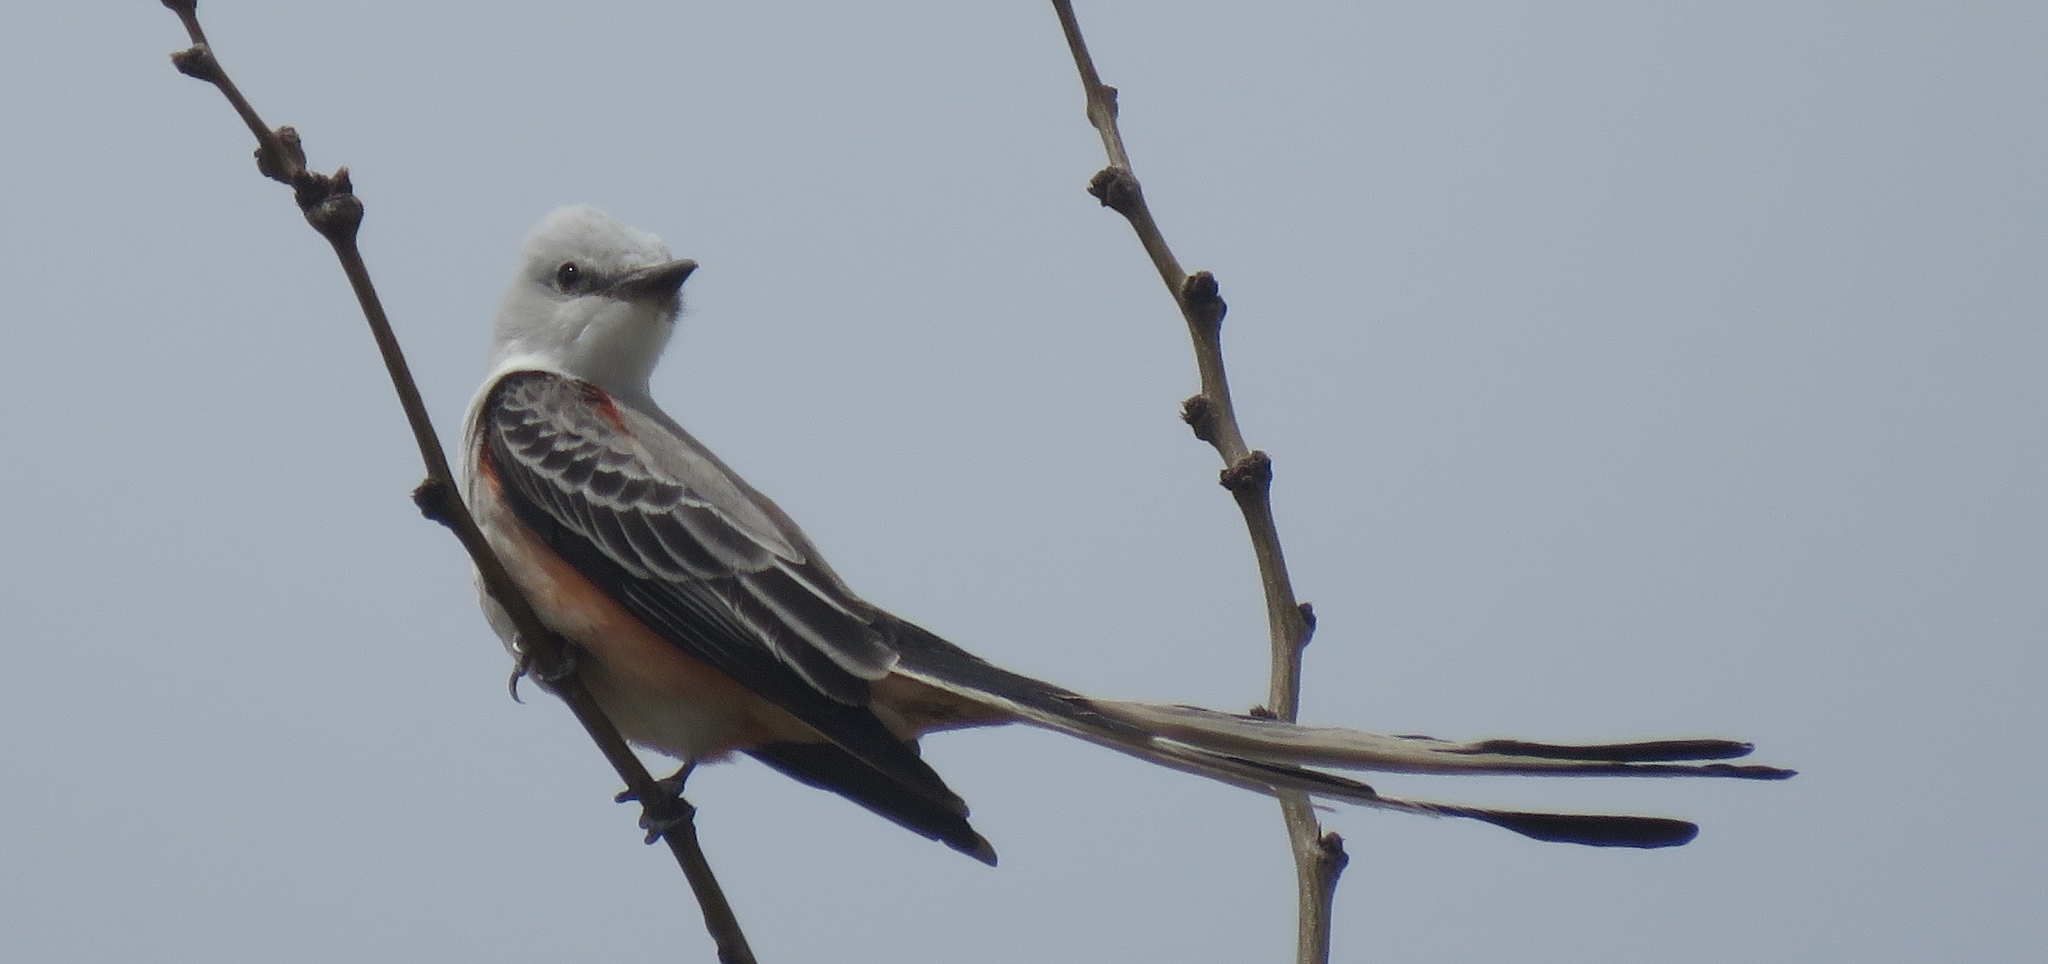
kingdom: Animalia
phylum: Chordata
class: Aves
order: Passeriformes
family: Tyrannidae
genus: Tyrannus
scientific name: Tyrannus forficatus
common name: Scissor-tailed flycatcher
